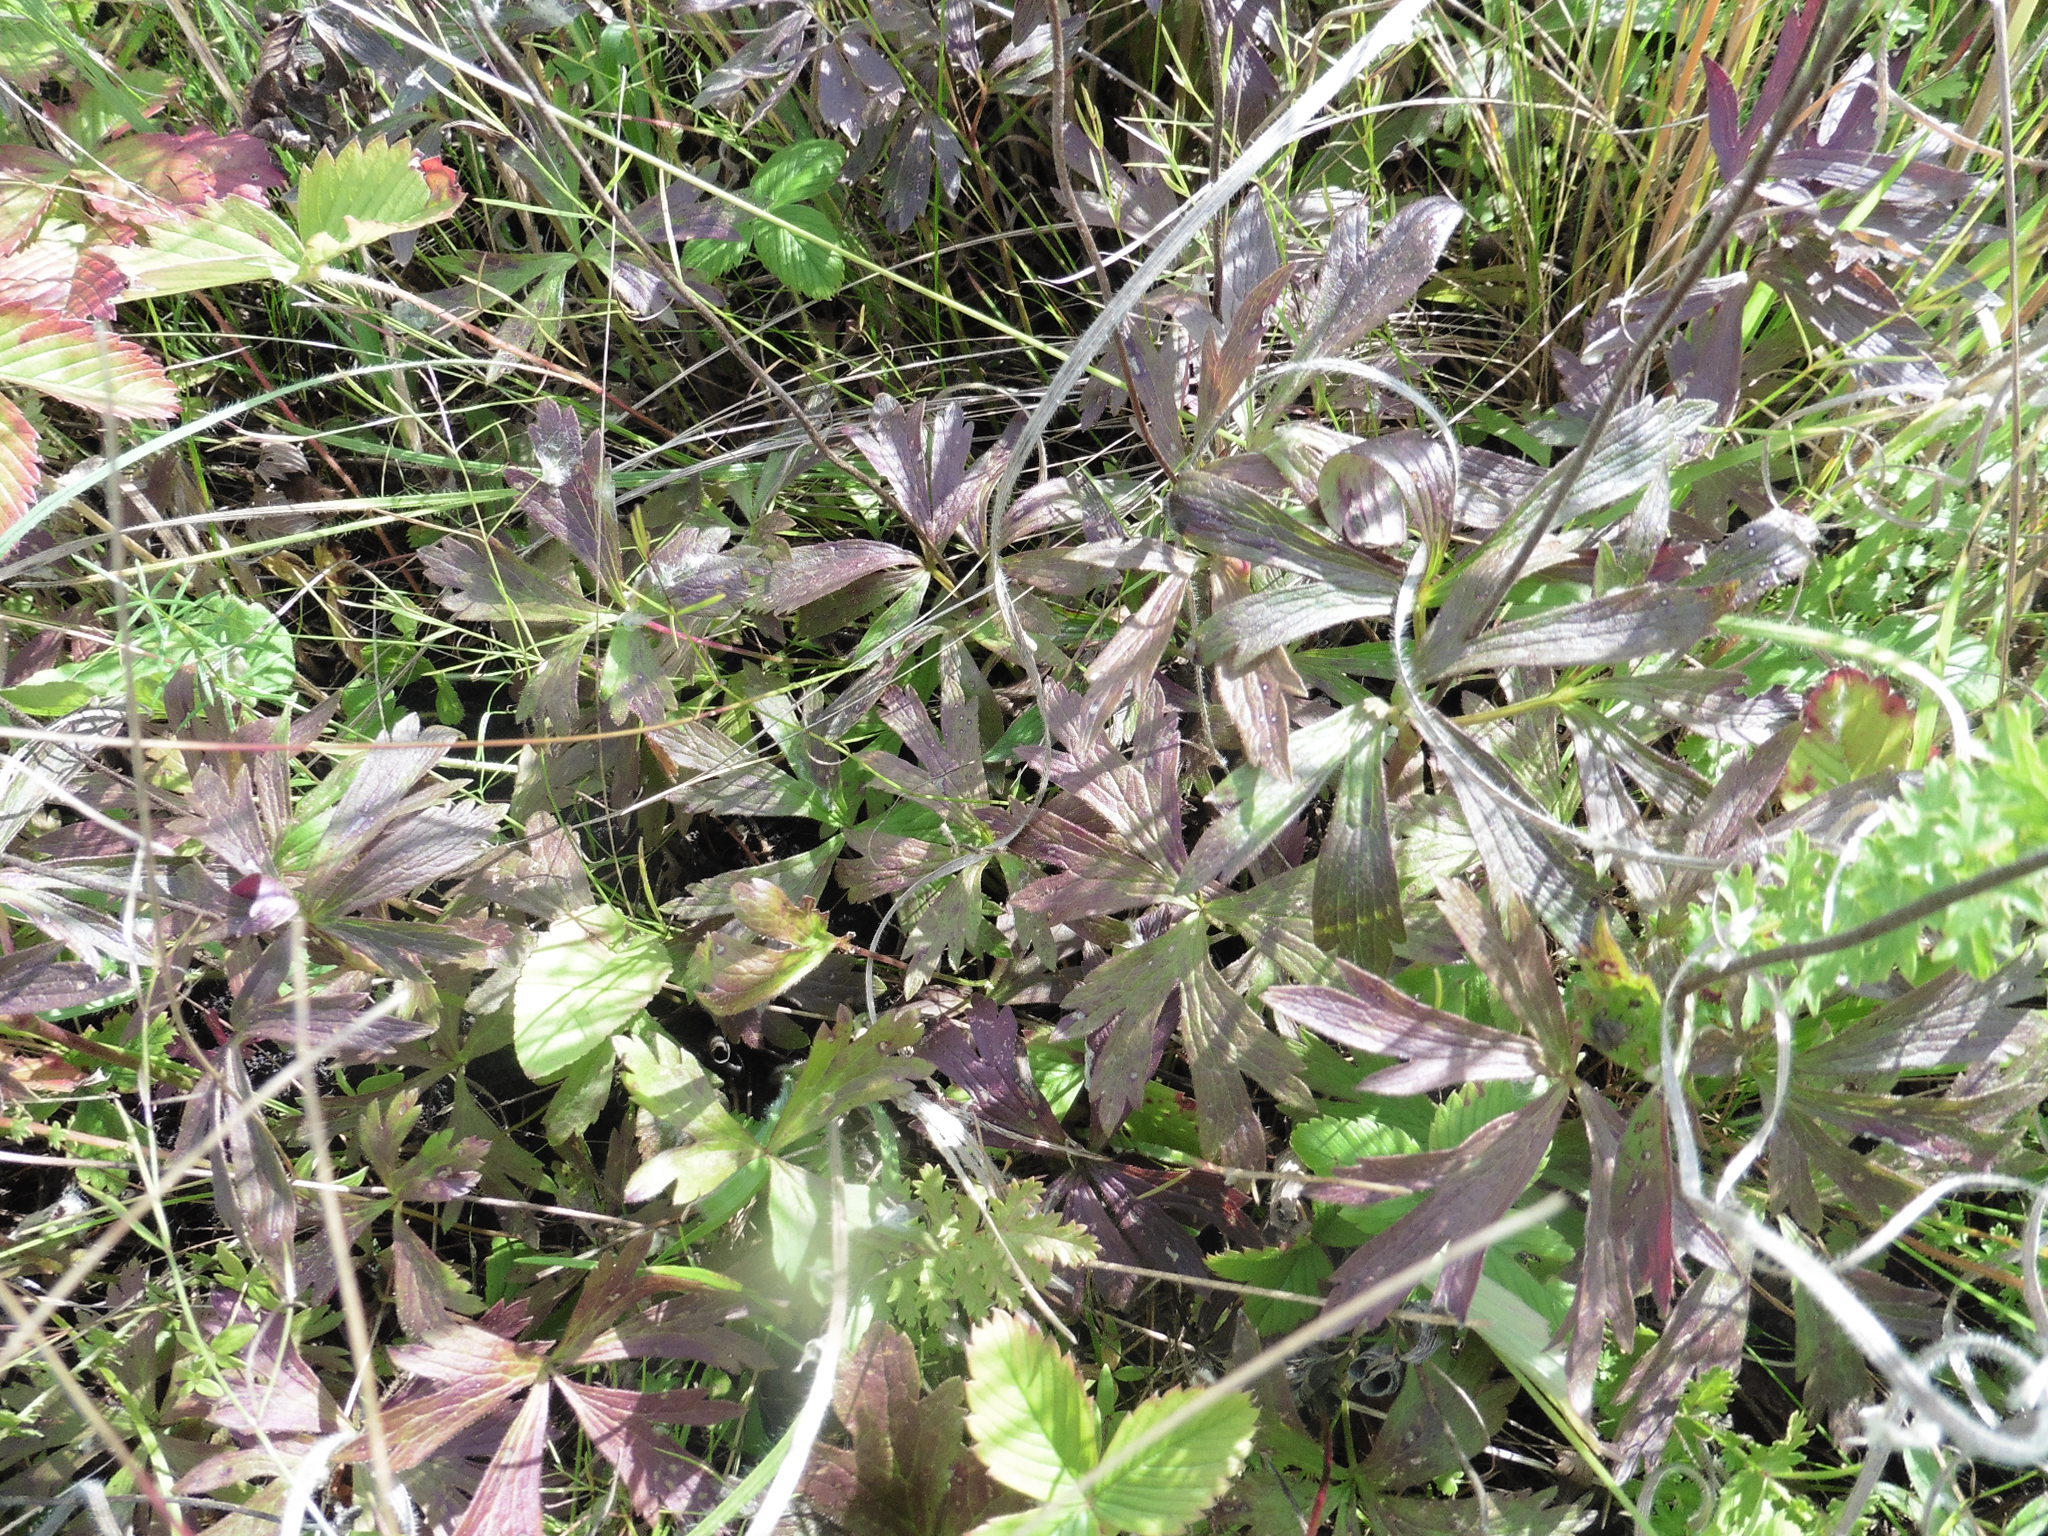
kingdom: Plantae
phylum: Tracheophyta
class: Magnoliopsida
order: Ranunculales
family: Ranunculaceae
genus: Anemone
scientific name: Anemone sylvestris
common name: Snowdrop anemone
